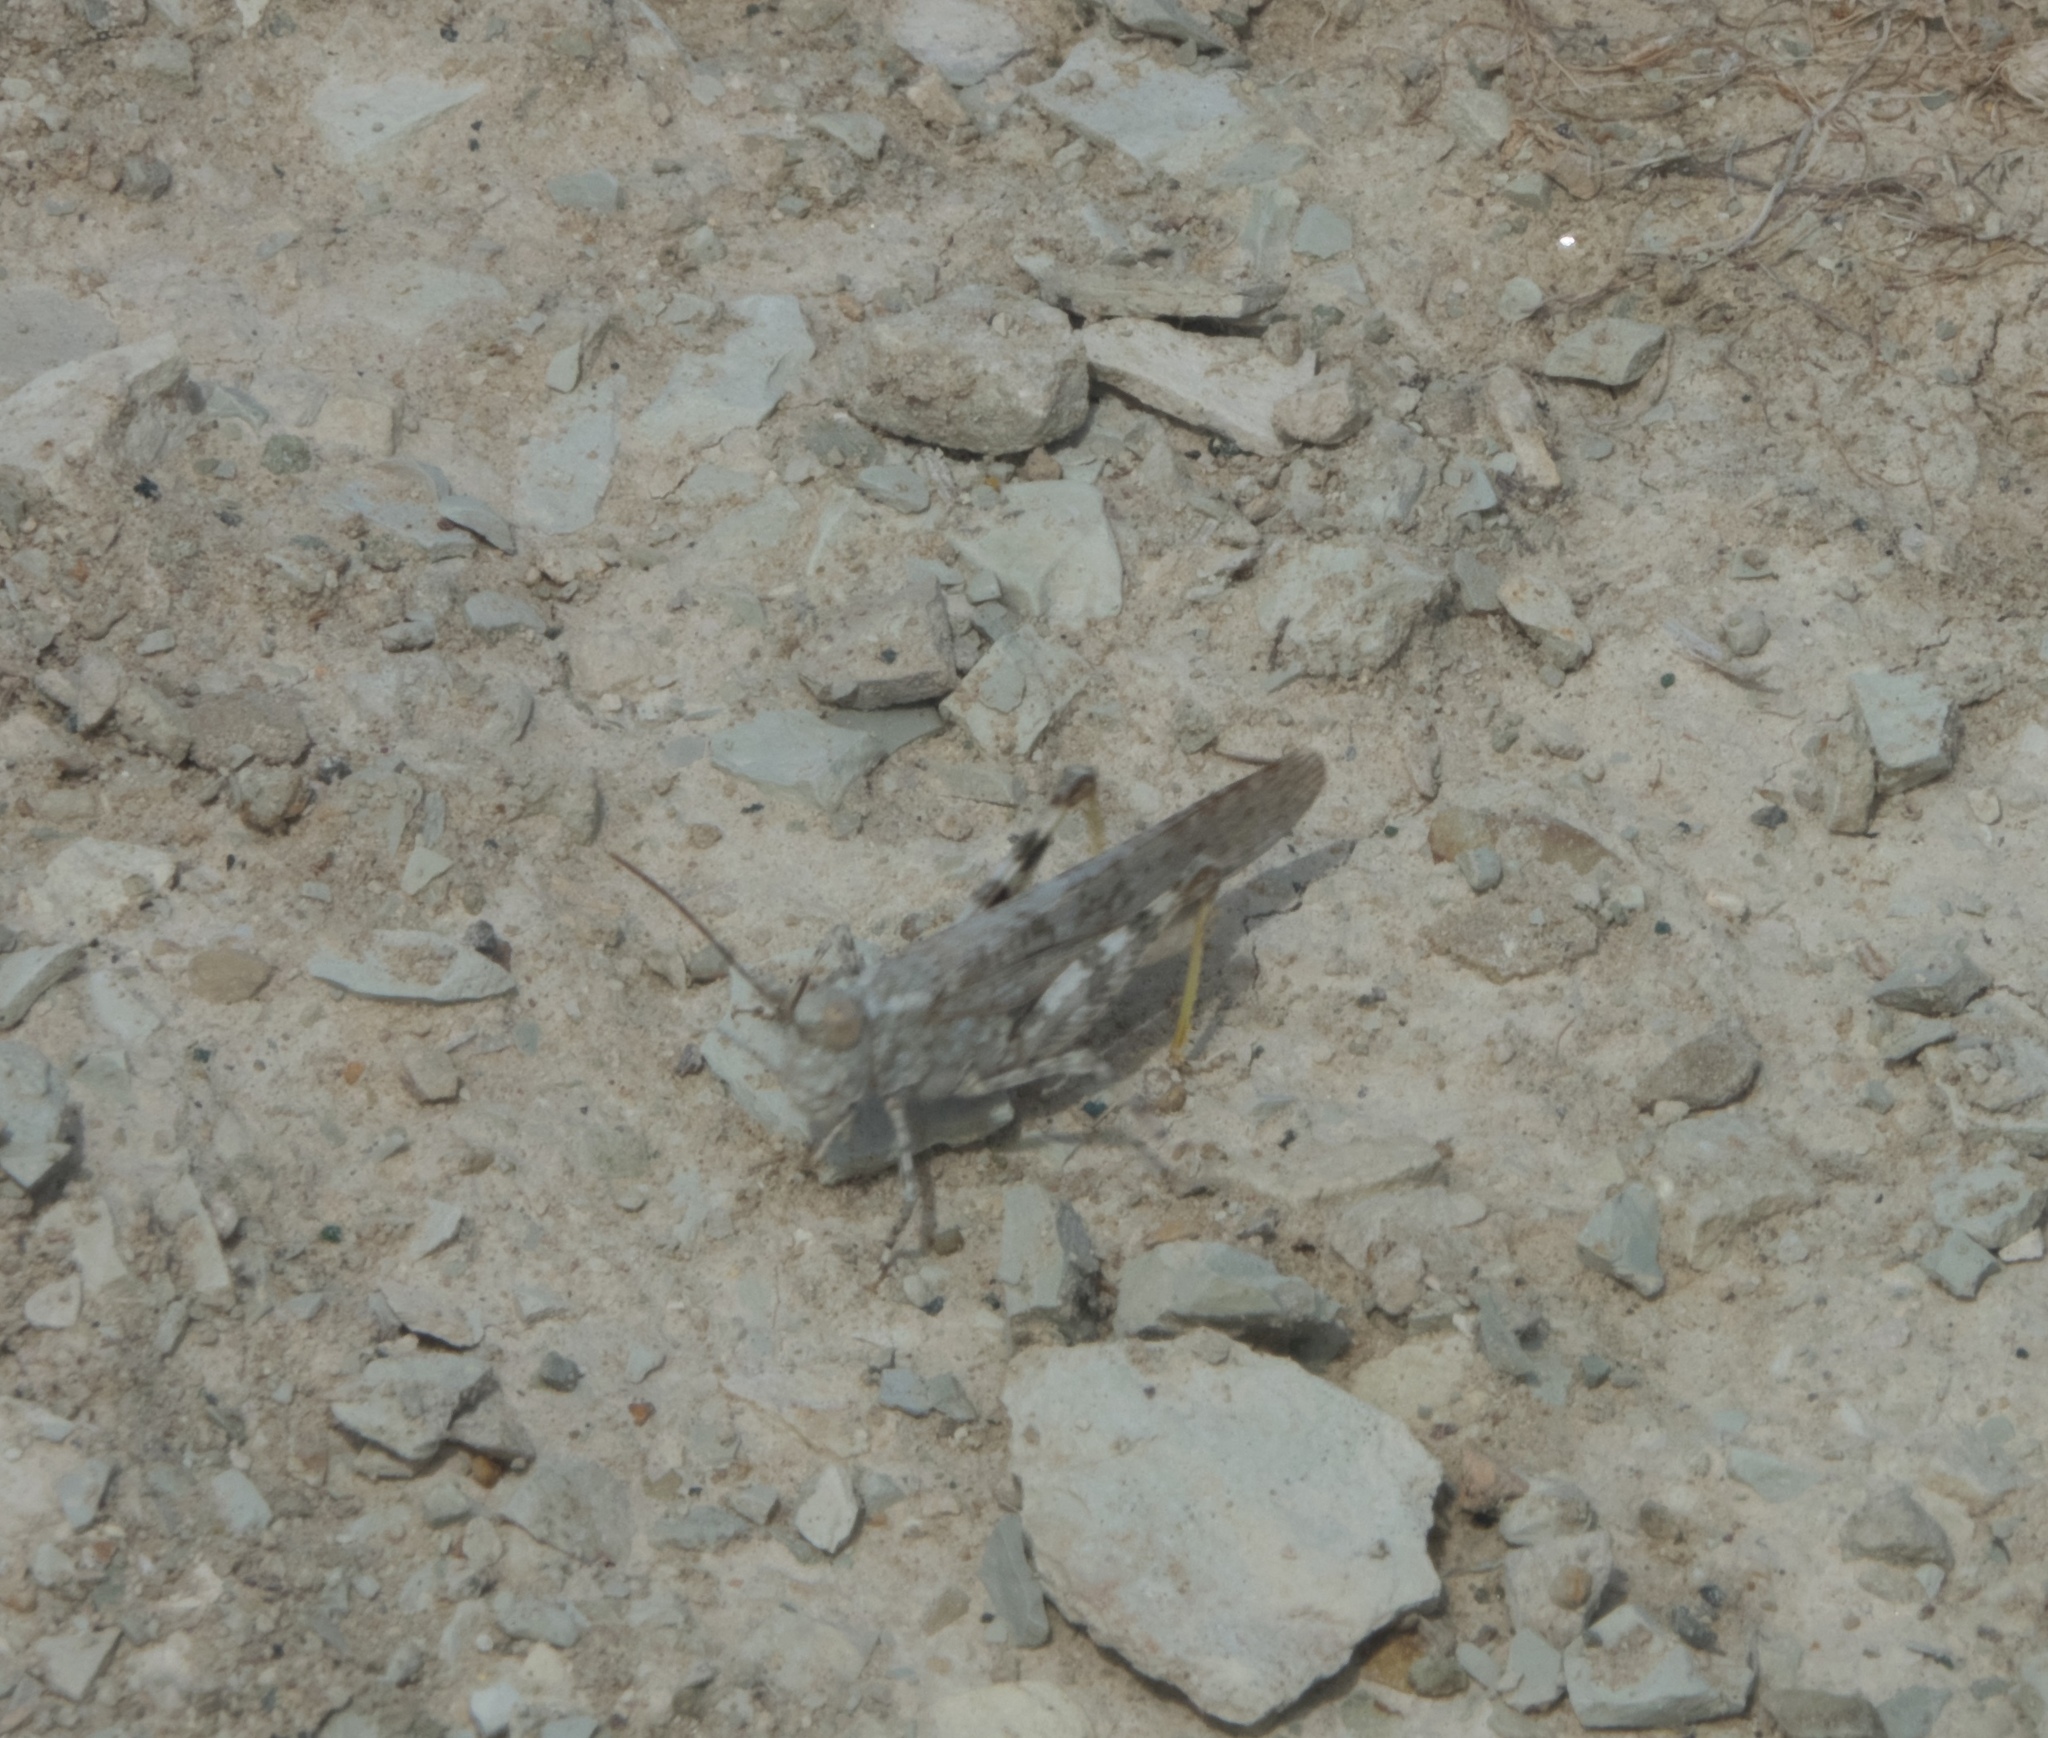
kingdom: Animalia
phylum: Arthropoda
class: Insecta
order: Orthoptera
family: Acrididae
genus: Trimerotropis
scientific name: Trimerotropis sparsa
